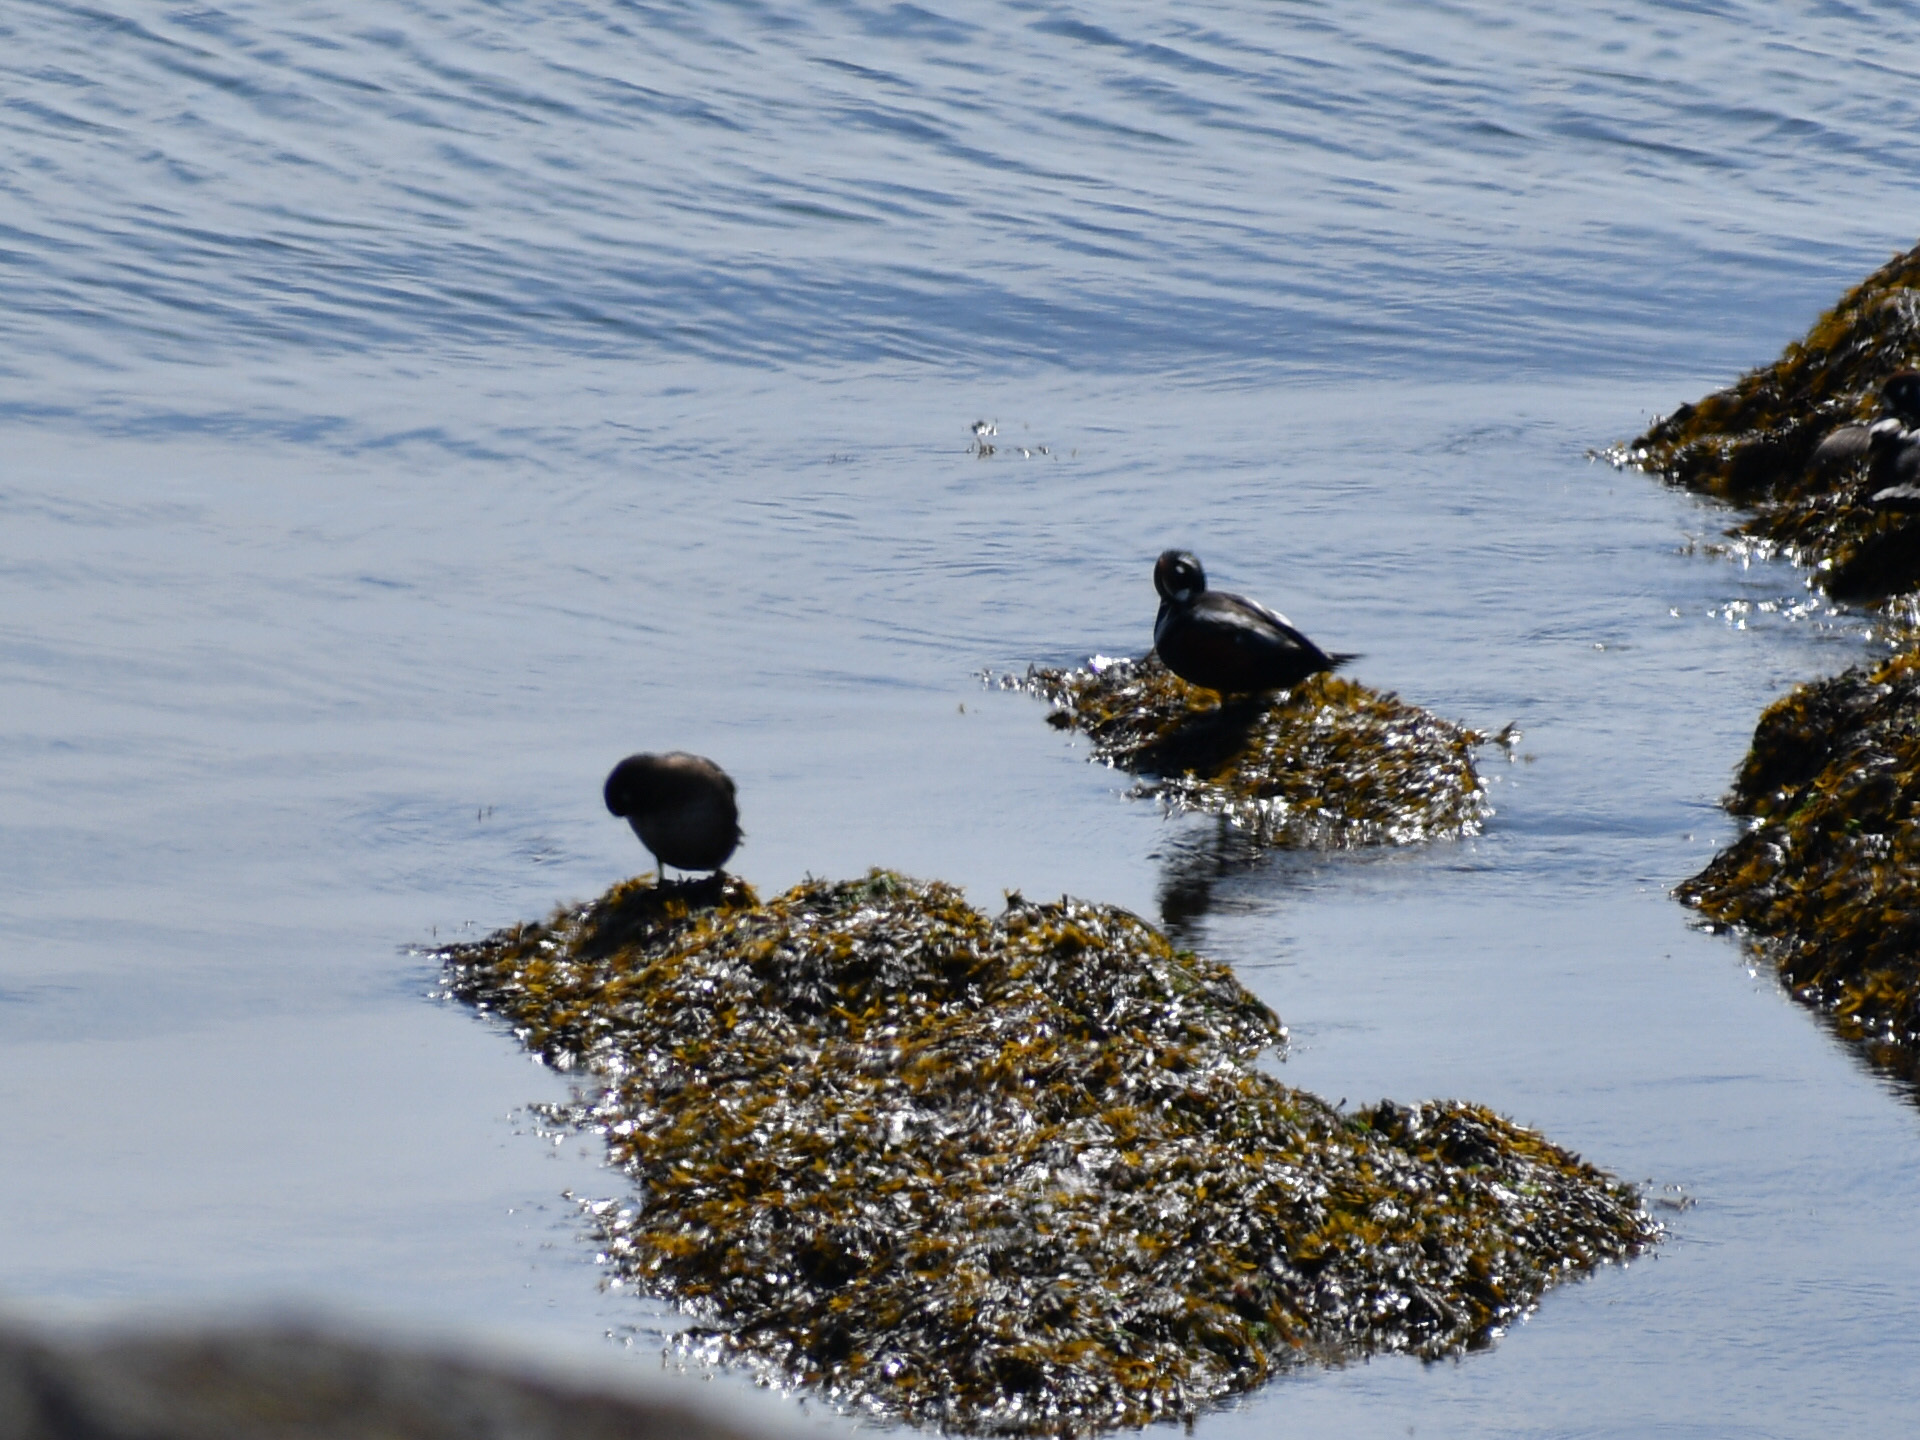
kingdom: Animalia
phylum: Chordata
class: Aves
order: Anseriformes
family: Anatidae
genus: Histrionicus
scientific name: Histrionicus histrionicus
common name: Harlequin duck
